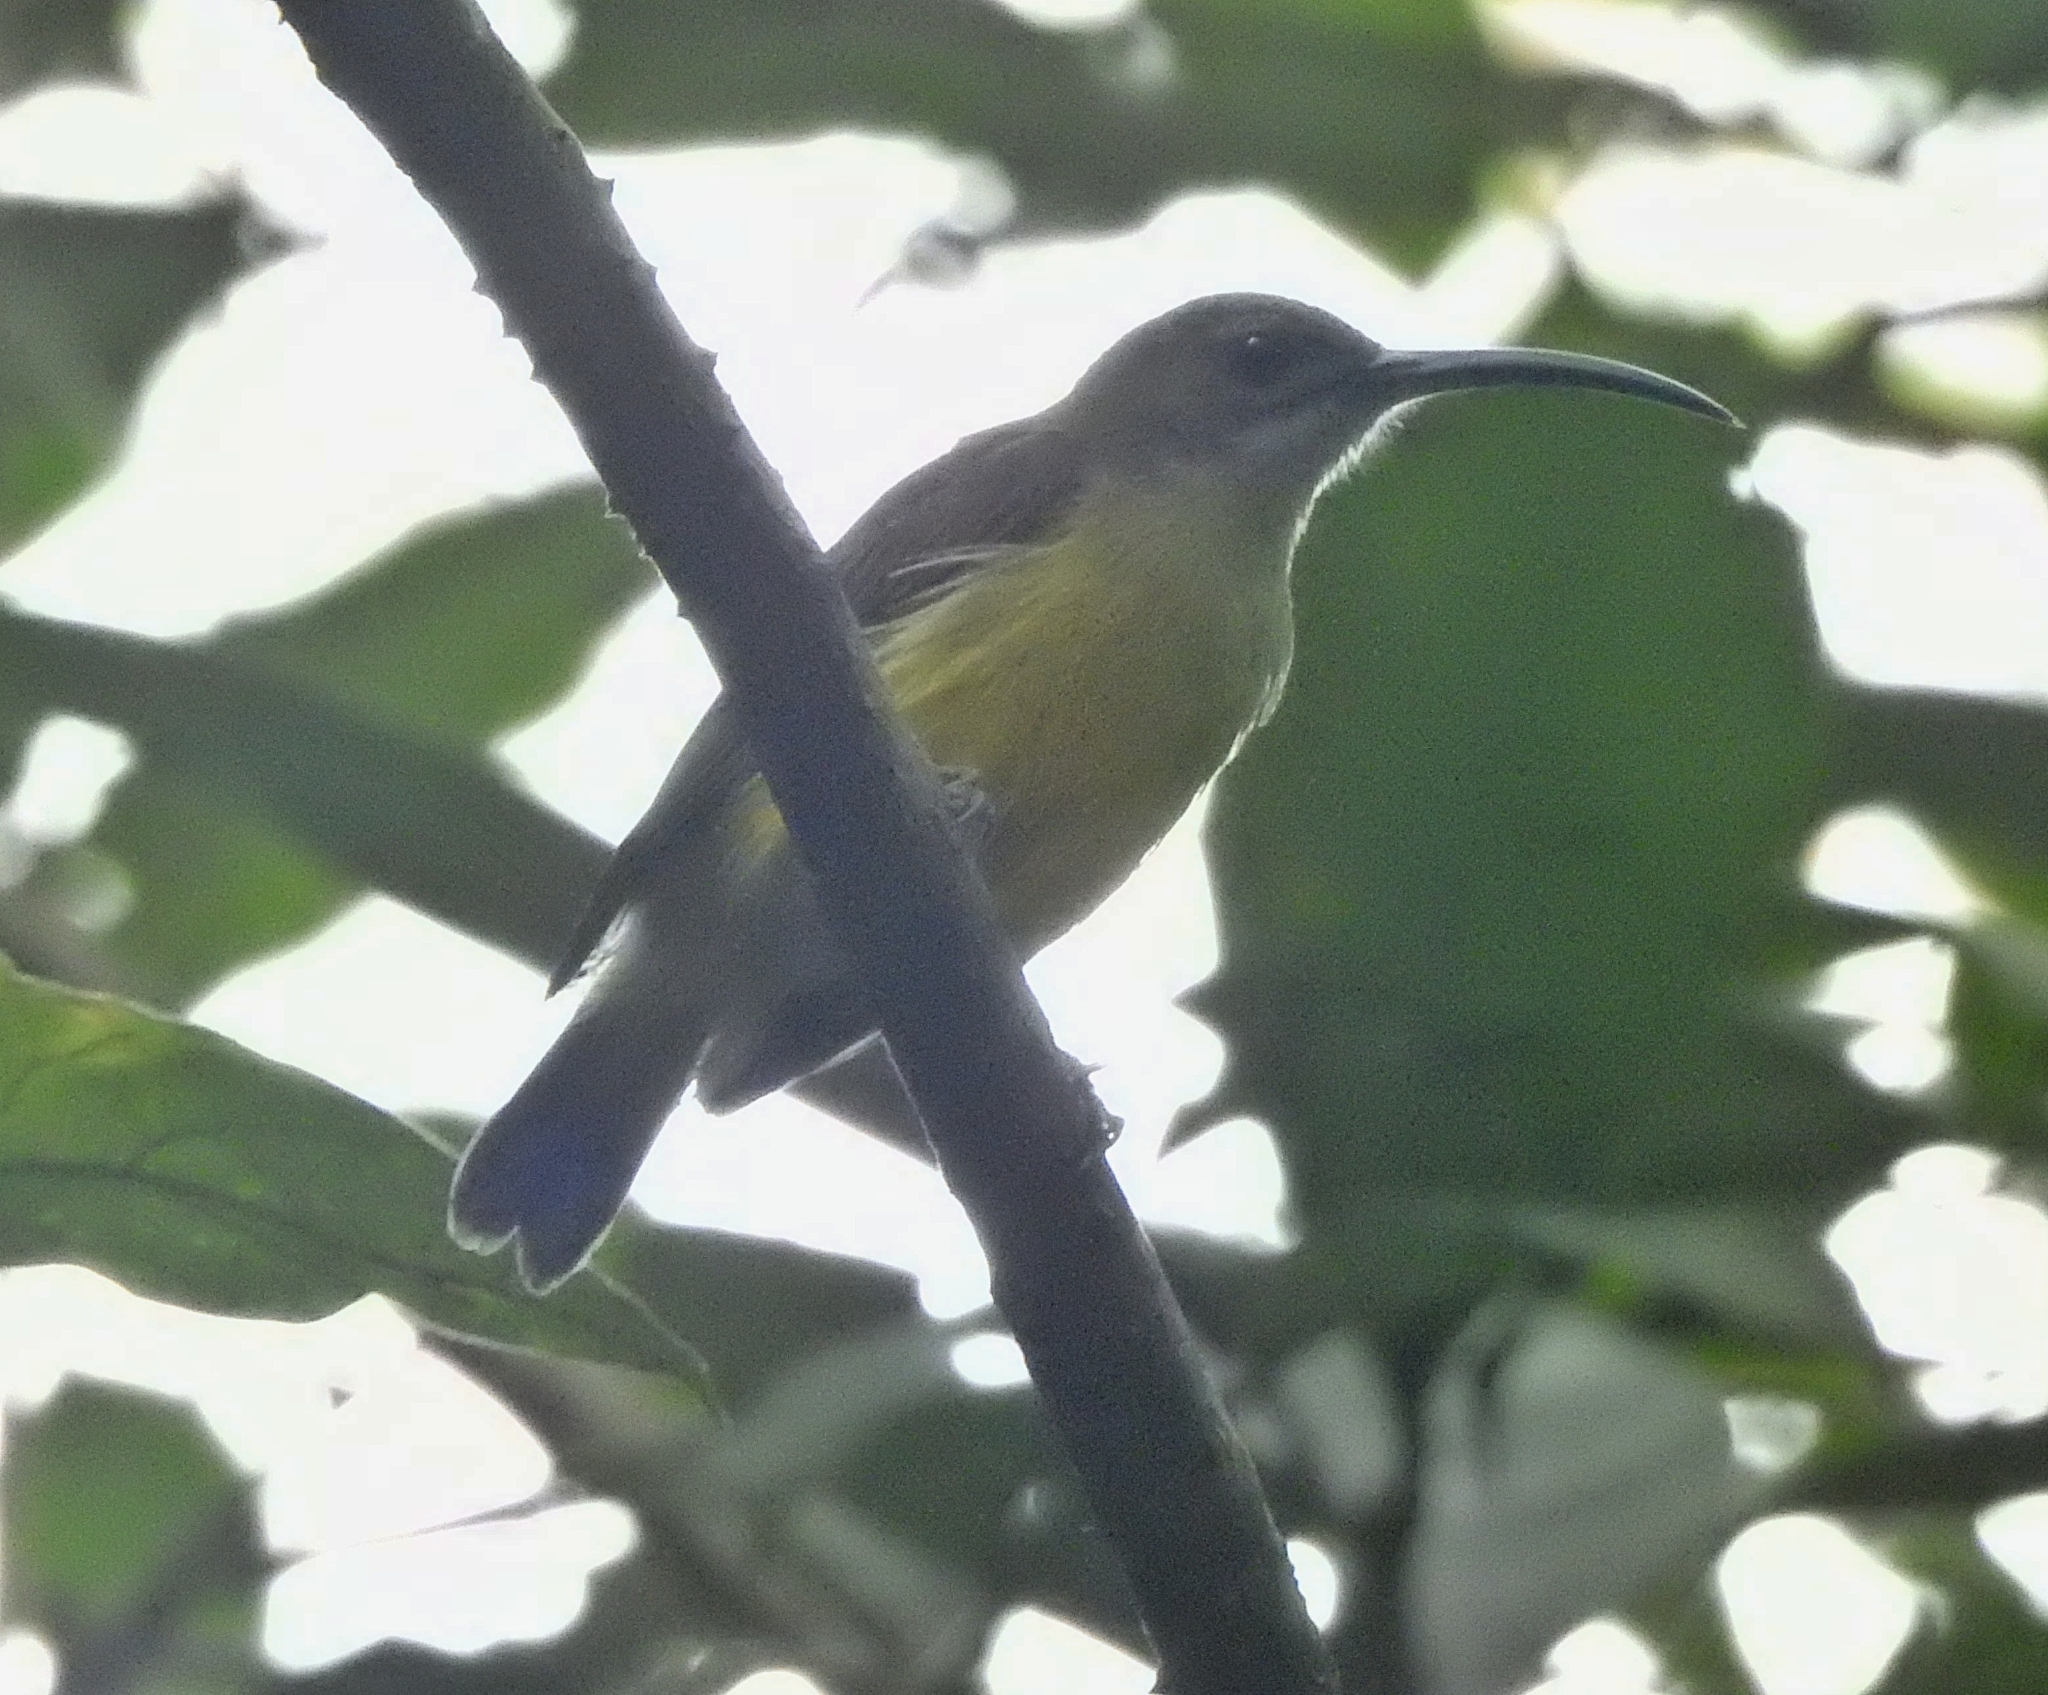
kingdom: Animalia
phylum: Chordata
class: Aves
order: Passeriformes
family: Nectariniidae
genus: Arachnothera
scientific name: Arachnothera longirostra
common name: Little spiderhunter
